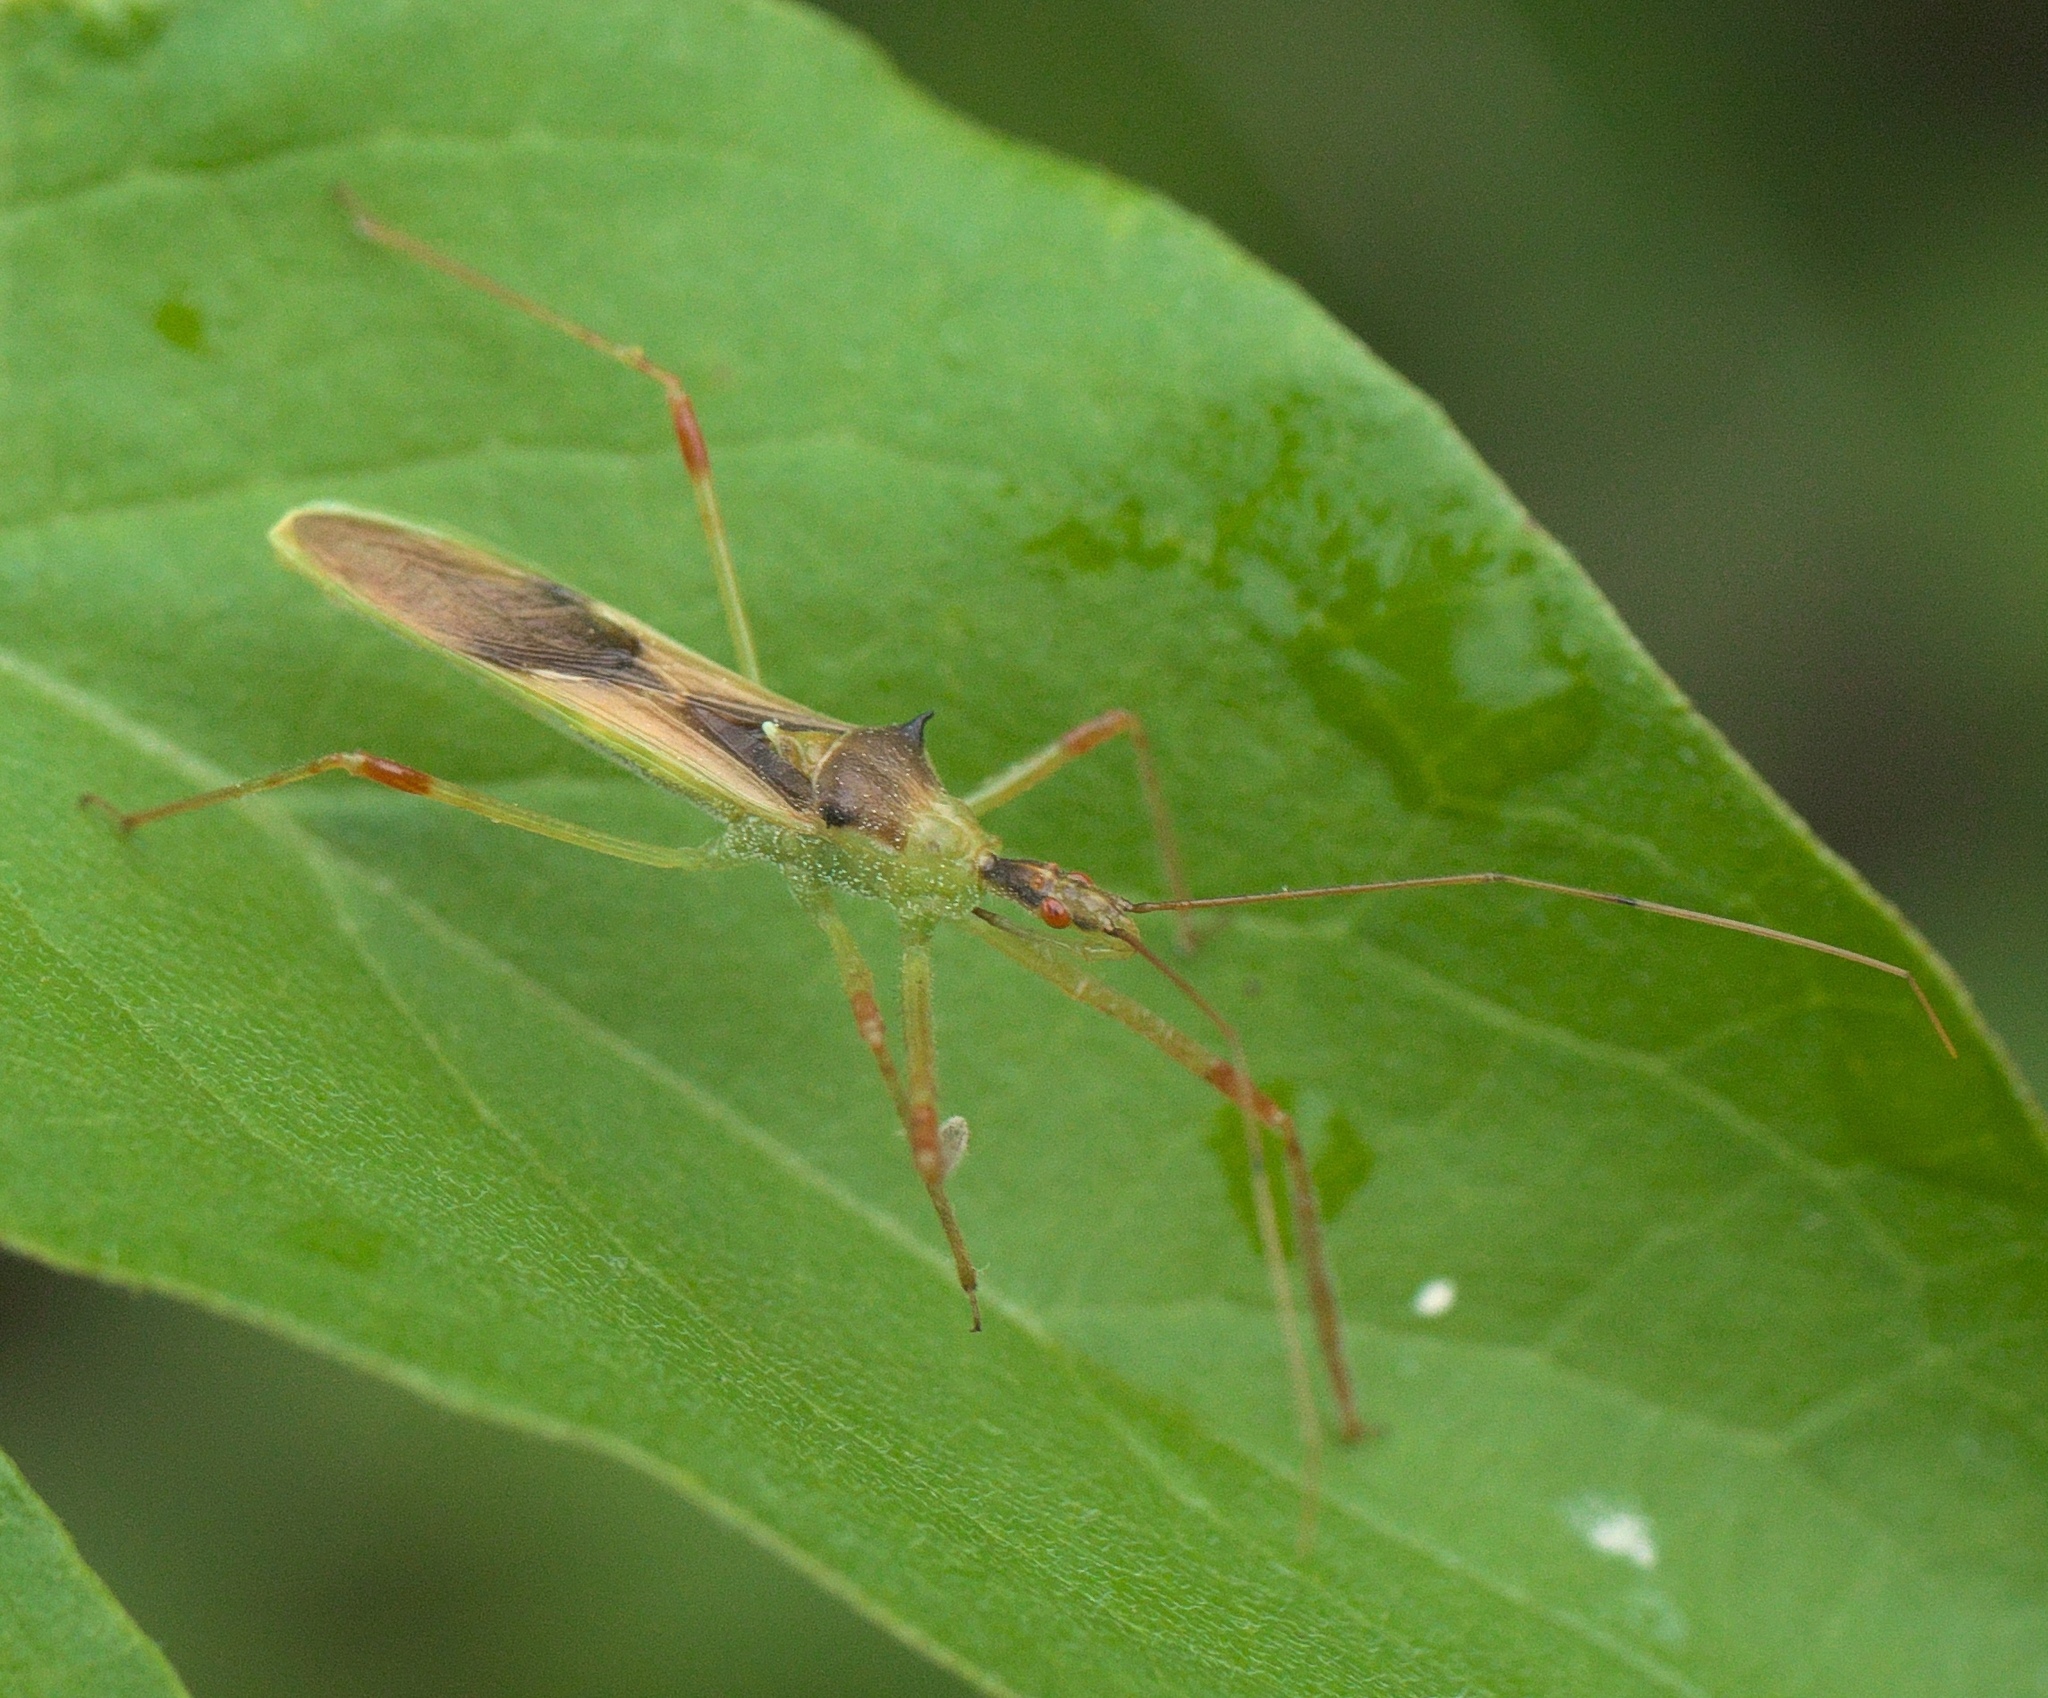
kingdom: Animalia
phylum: Arthropoda
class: Insecta
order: Hemiptera
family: Reduviidae
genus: Zelus
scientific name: Zelus luridus
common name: Pale green assassin bug
